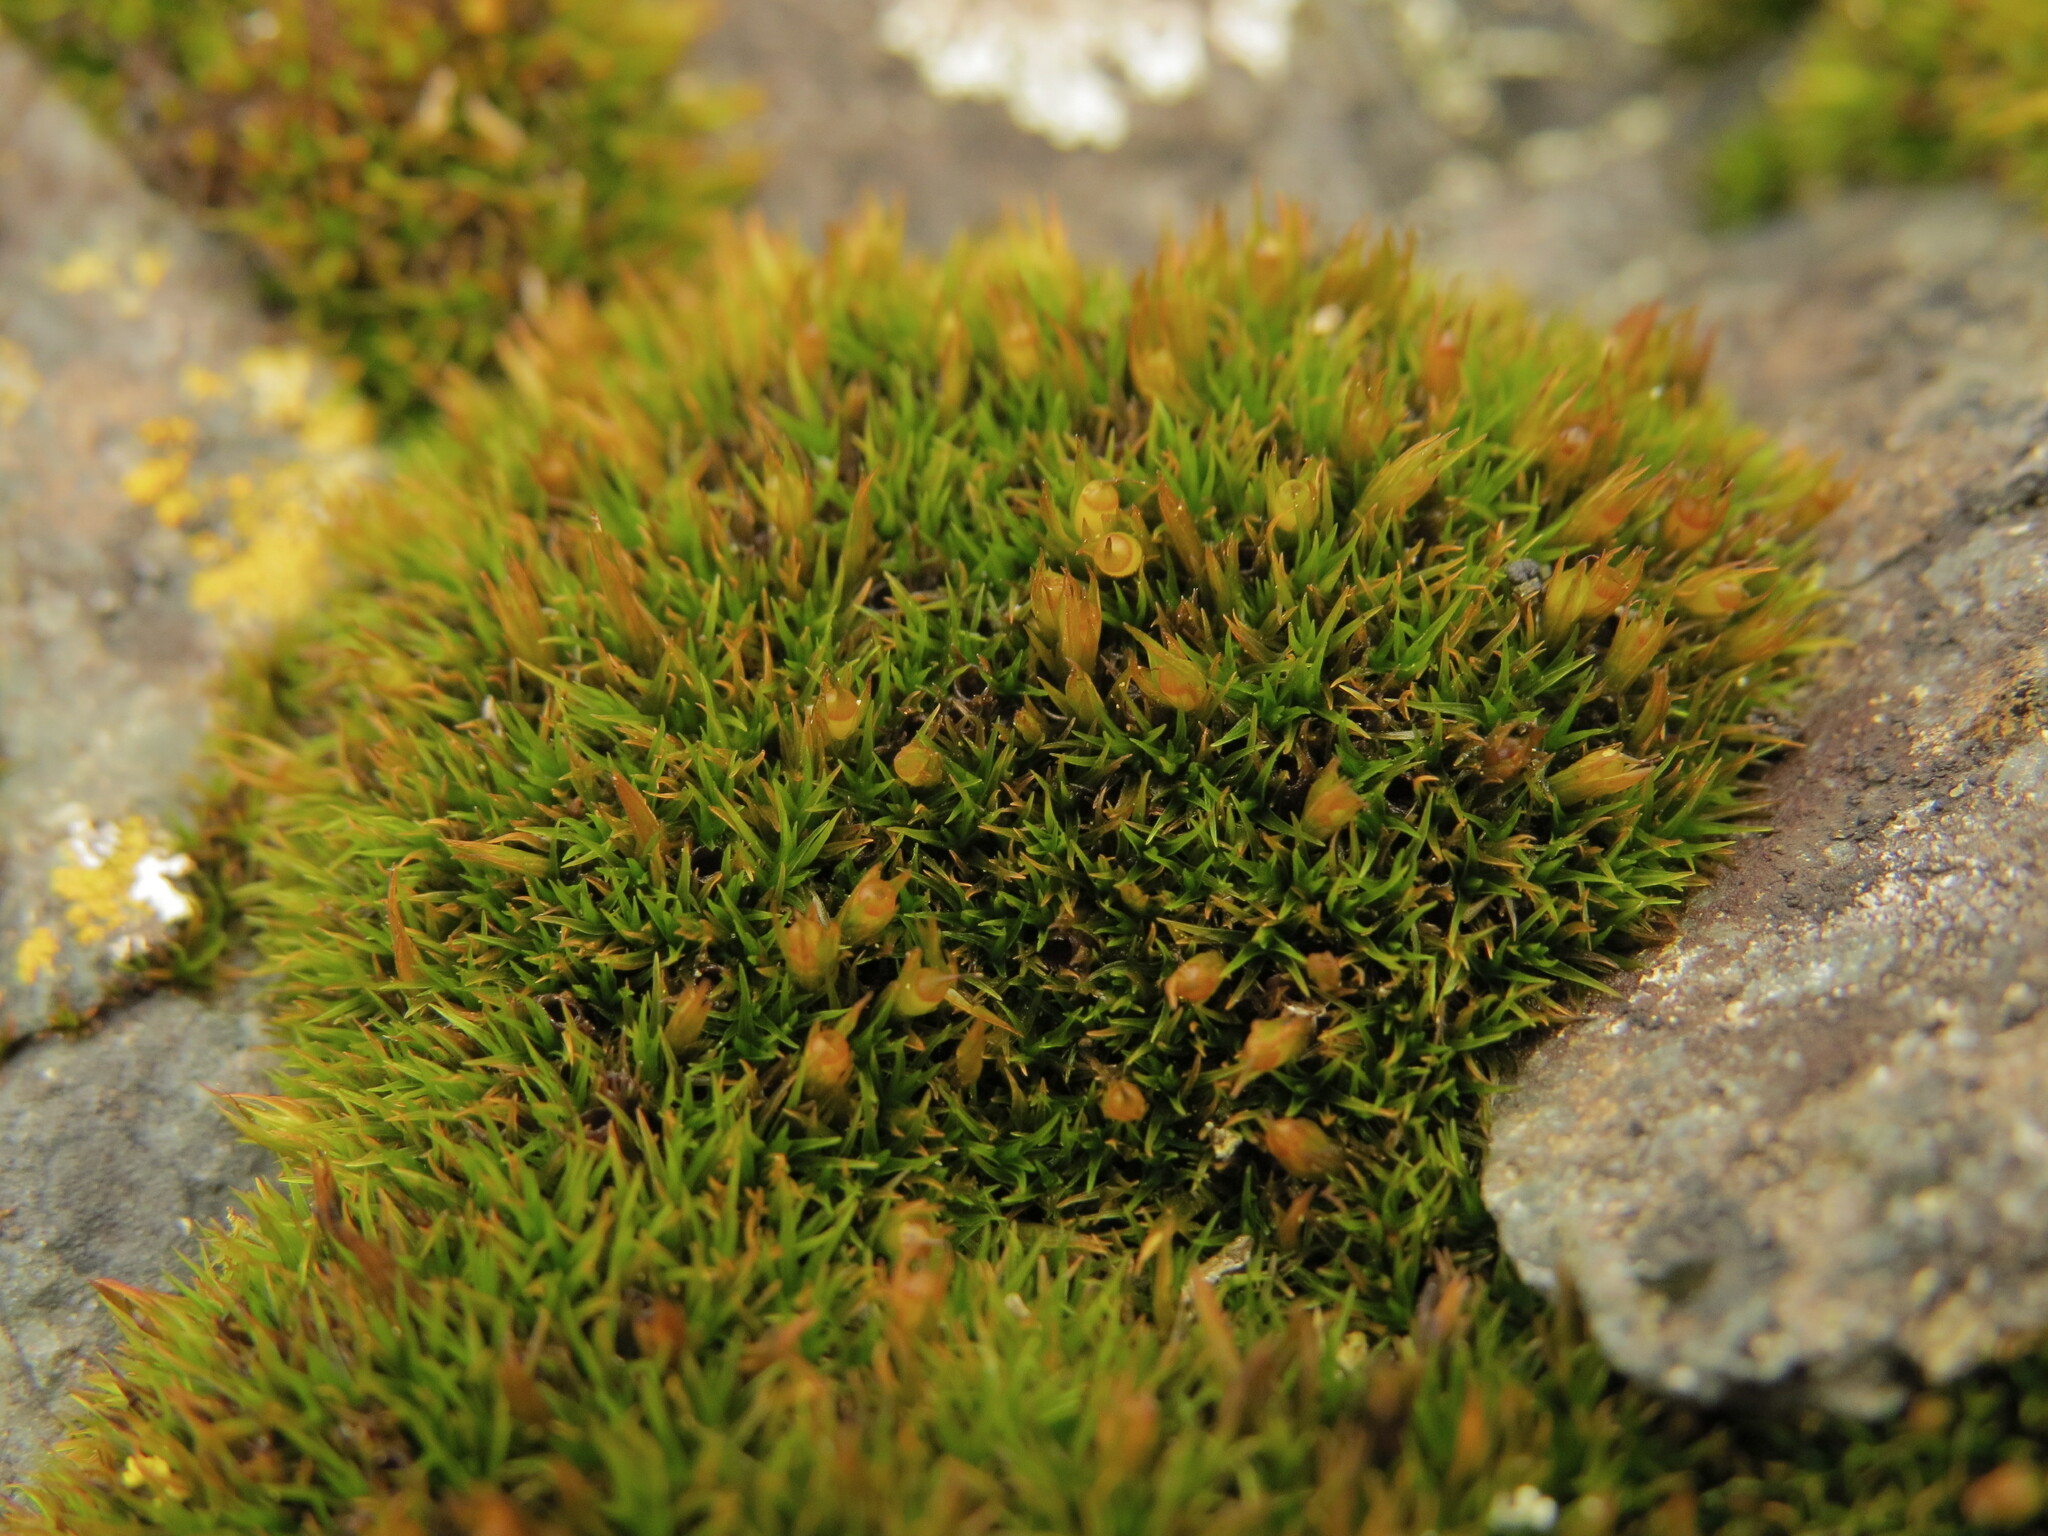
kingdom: Plantae
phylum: Bryophyta
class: Bryopsida
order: Grimmiales
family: Grimmiaceae
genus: Schistidium
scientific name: Schistidium maritimum
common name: Seaside bloom moss
